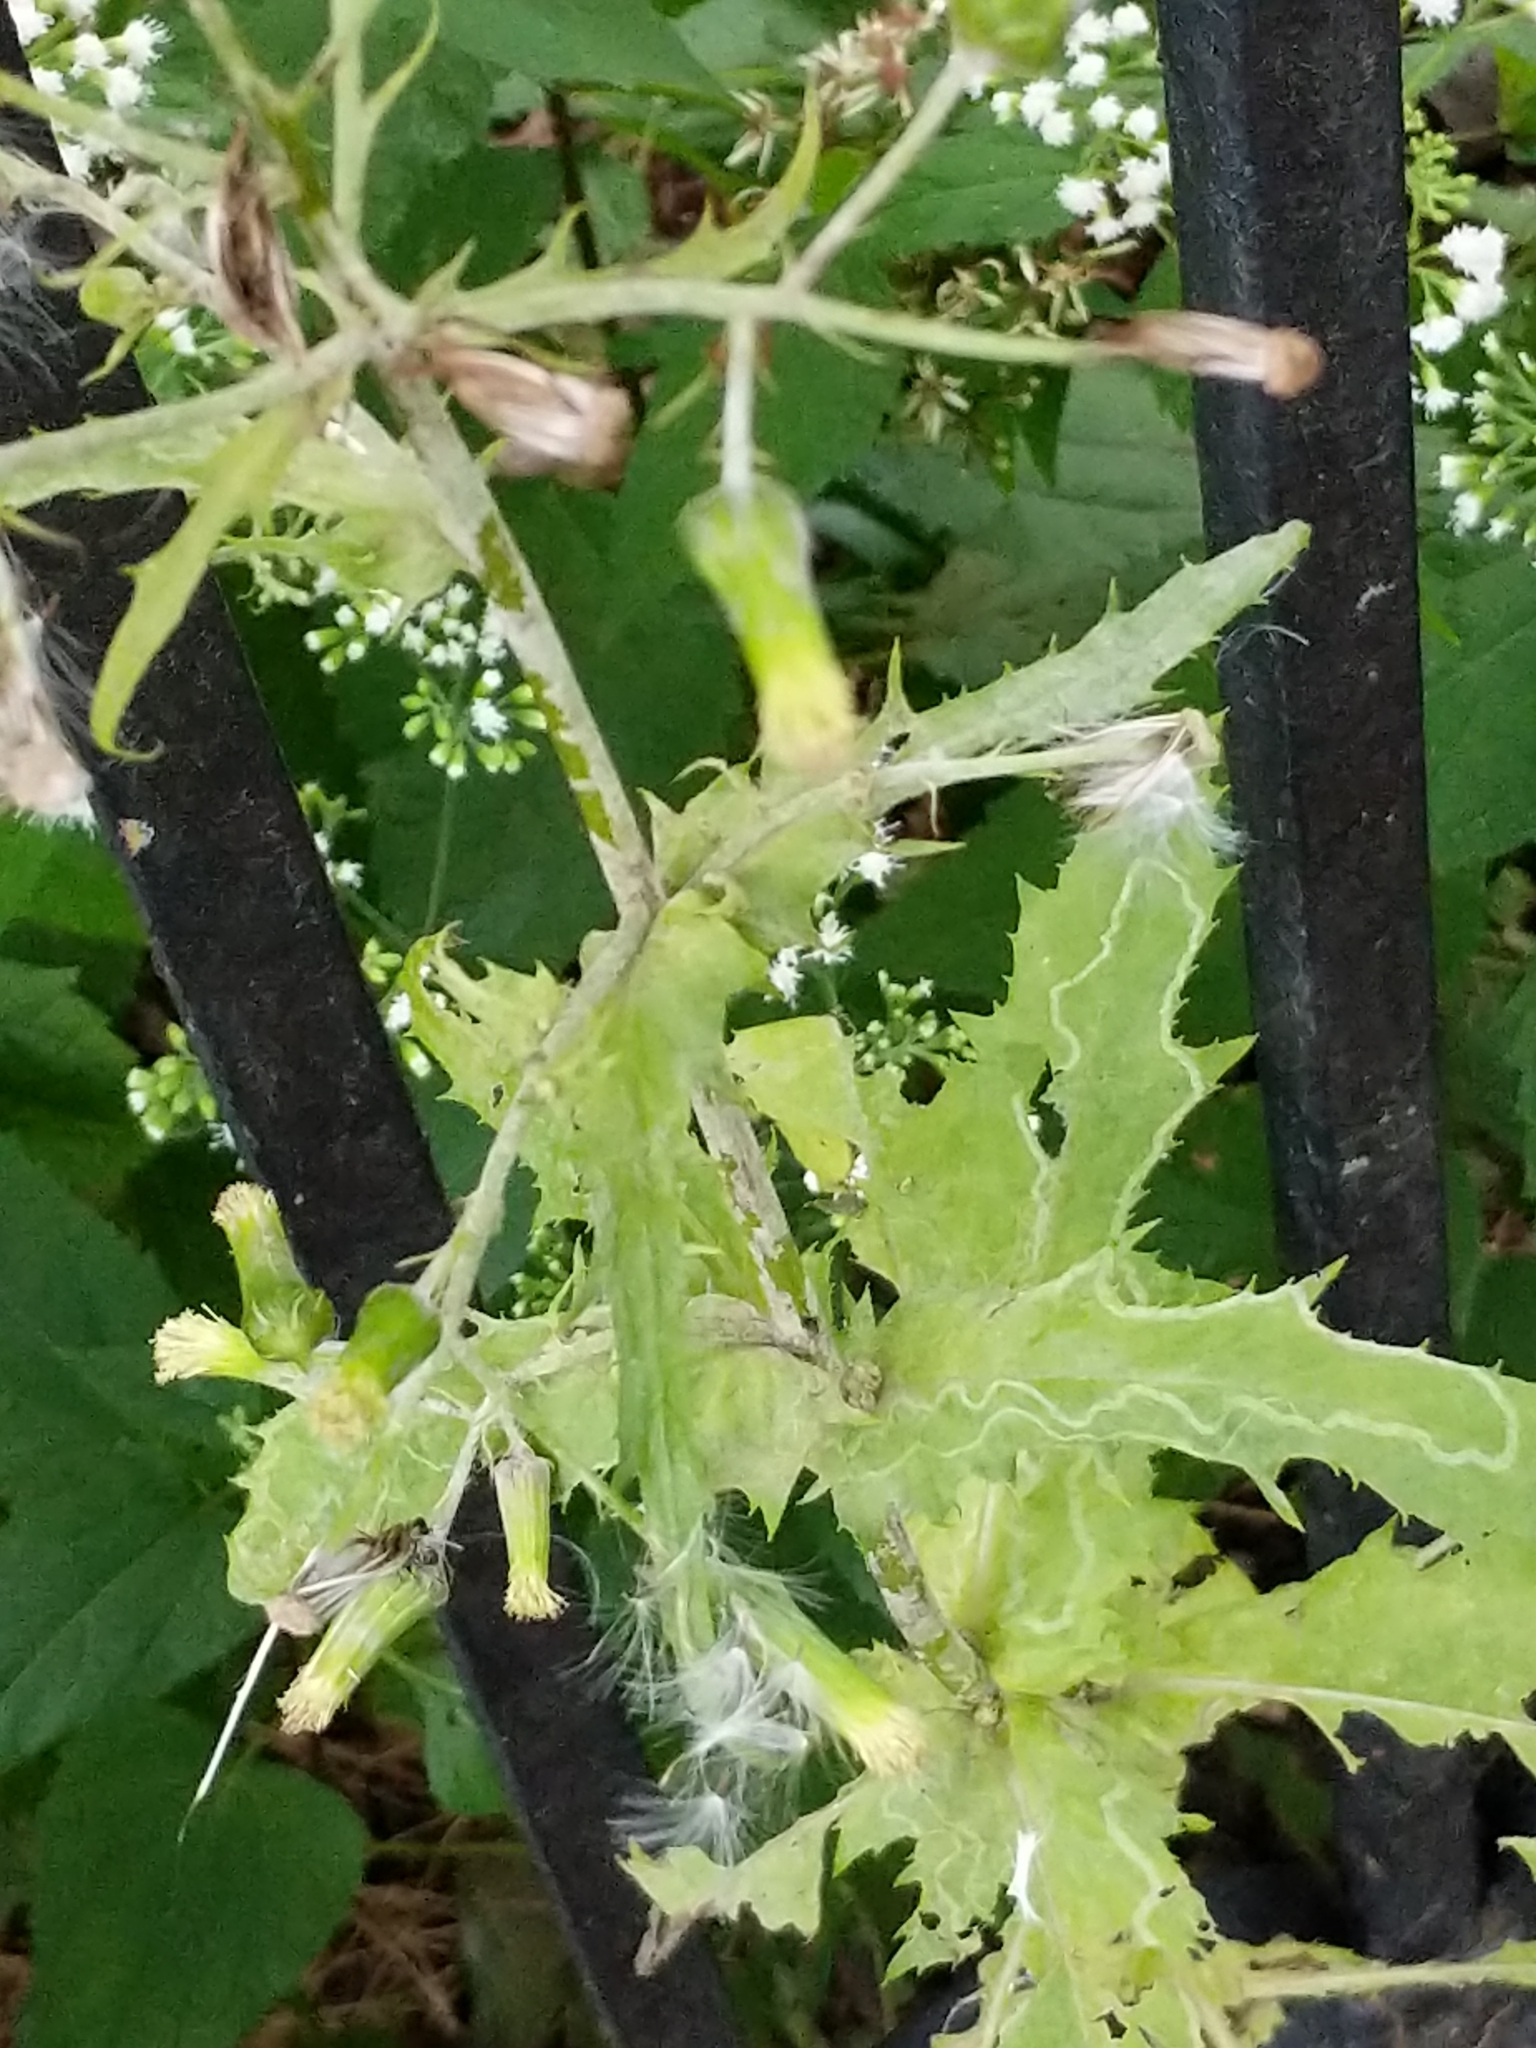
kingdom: Plantae
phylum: Tracheophyta
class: Magnoliopsida
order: Asterales
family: Asteraceae
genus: Erechtites
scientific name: Erechtites hieraciifolius
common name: American burnweed
